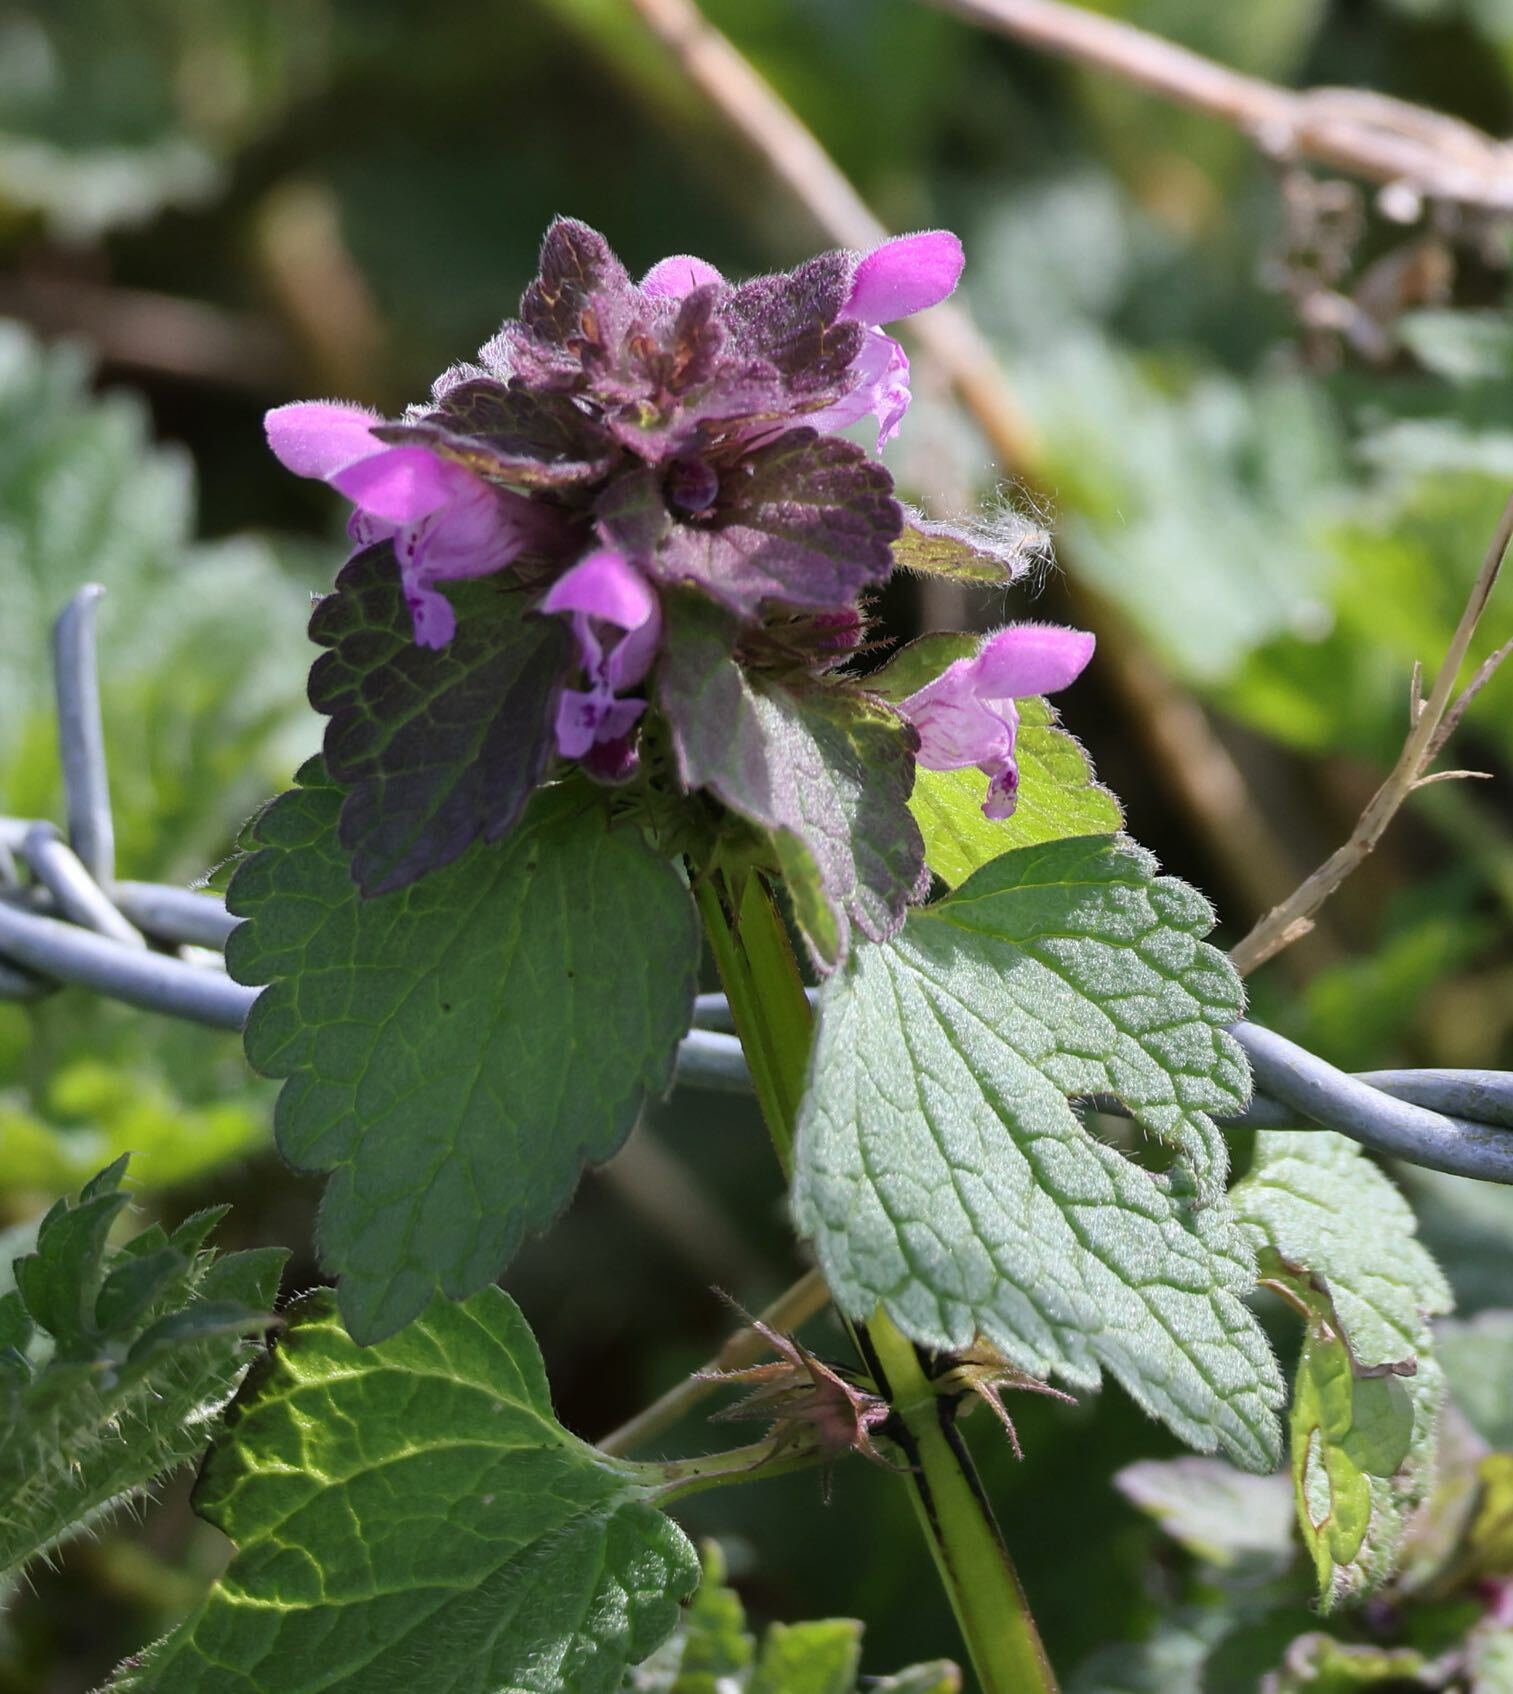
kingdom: Plantae
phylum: Tracheophyta
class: Magnoliopsida
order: Lamiales
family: Lamiaceae
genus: Lamium
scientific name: Lamium purpureum
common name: Red dead-nettle
